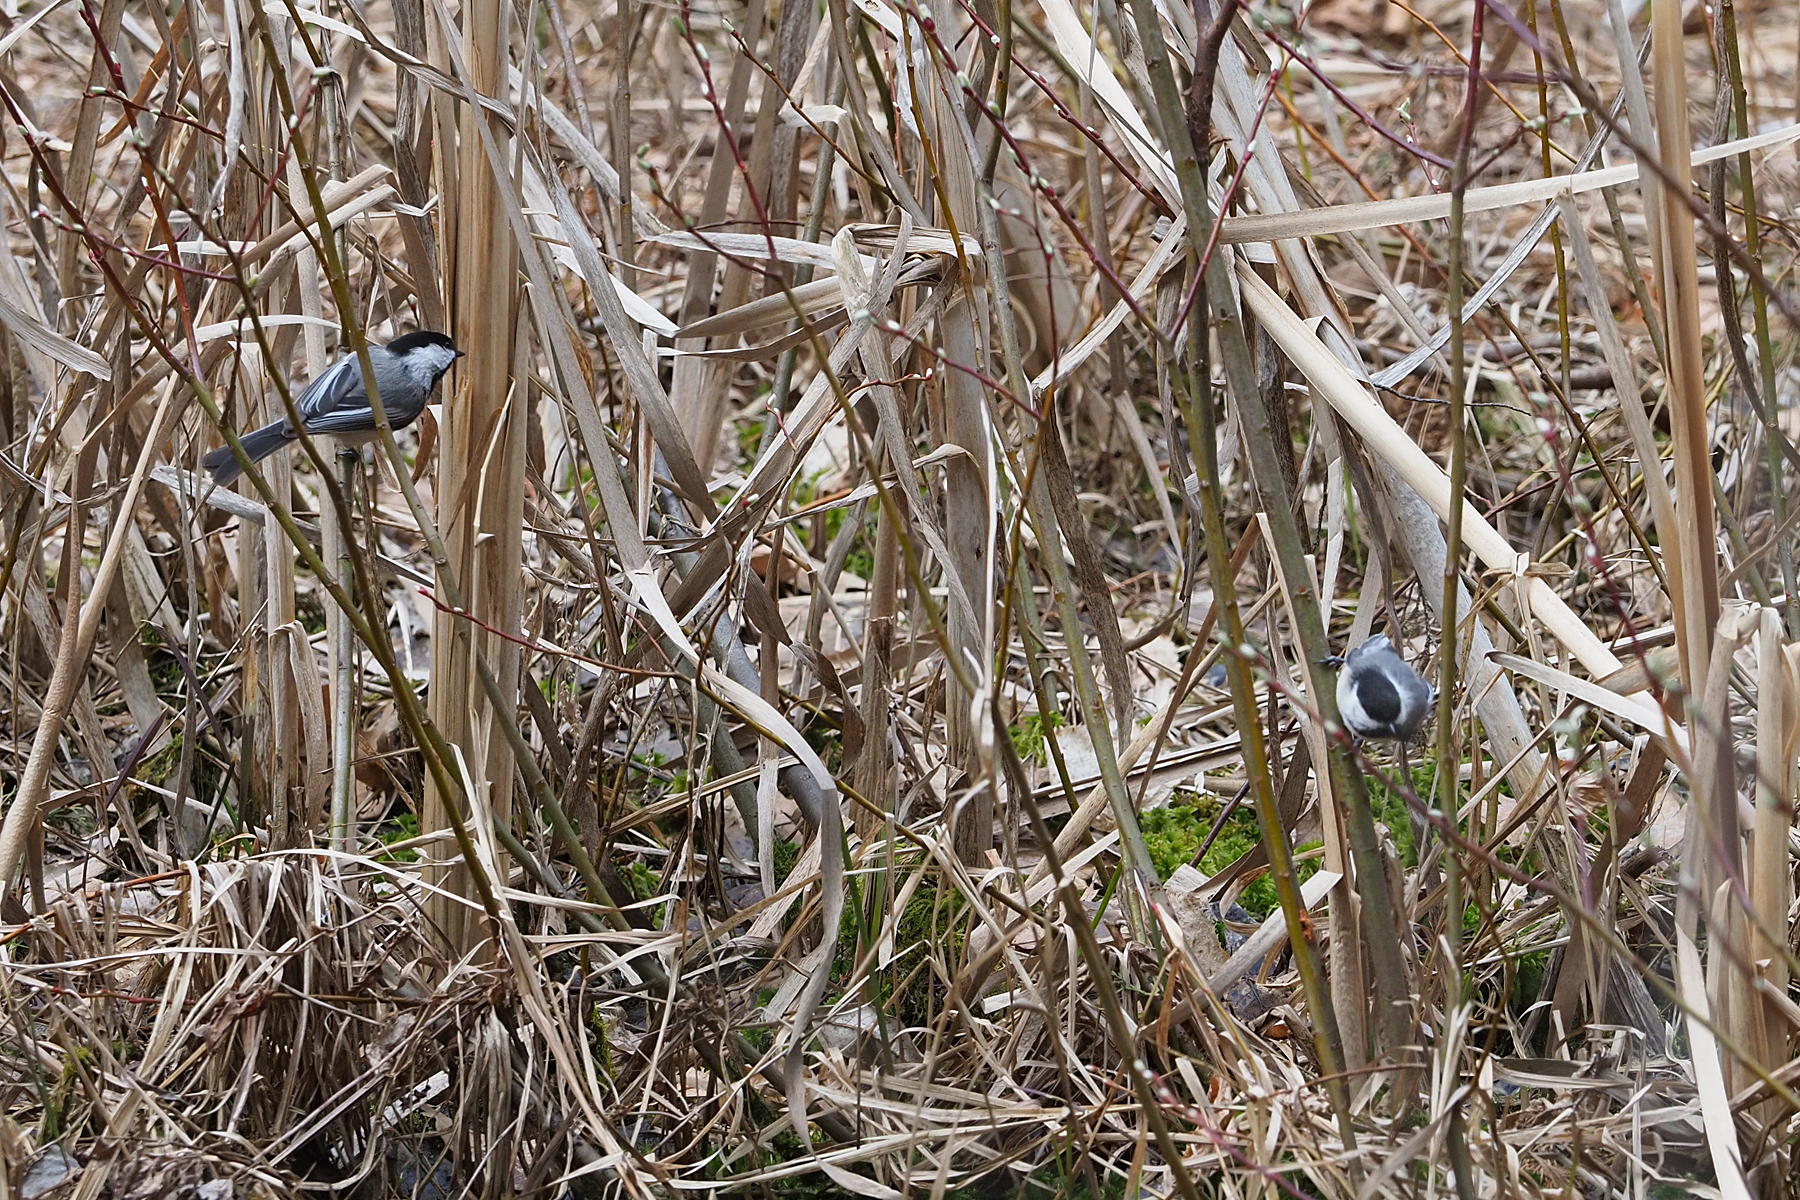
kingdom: Animalia
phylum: Chordata
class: Aves
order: Passeriformes
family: Paridae
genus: Poecile
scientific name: Poecile atricapillus
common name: Black-capped chickadee
